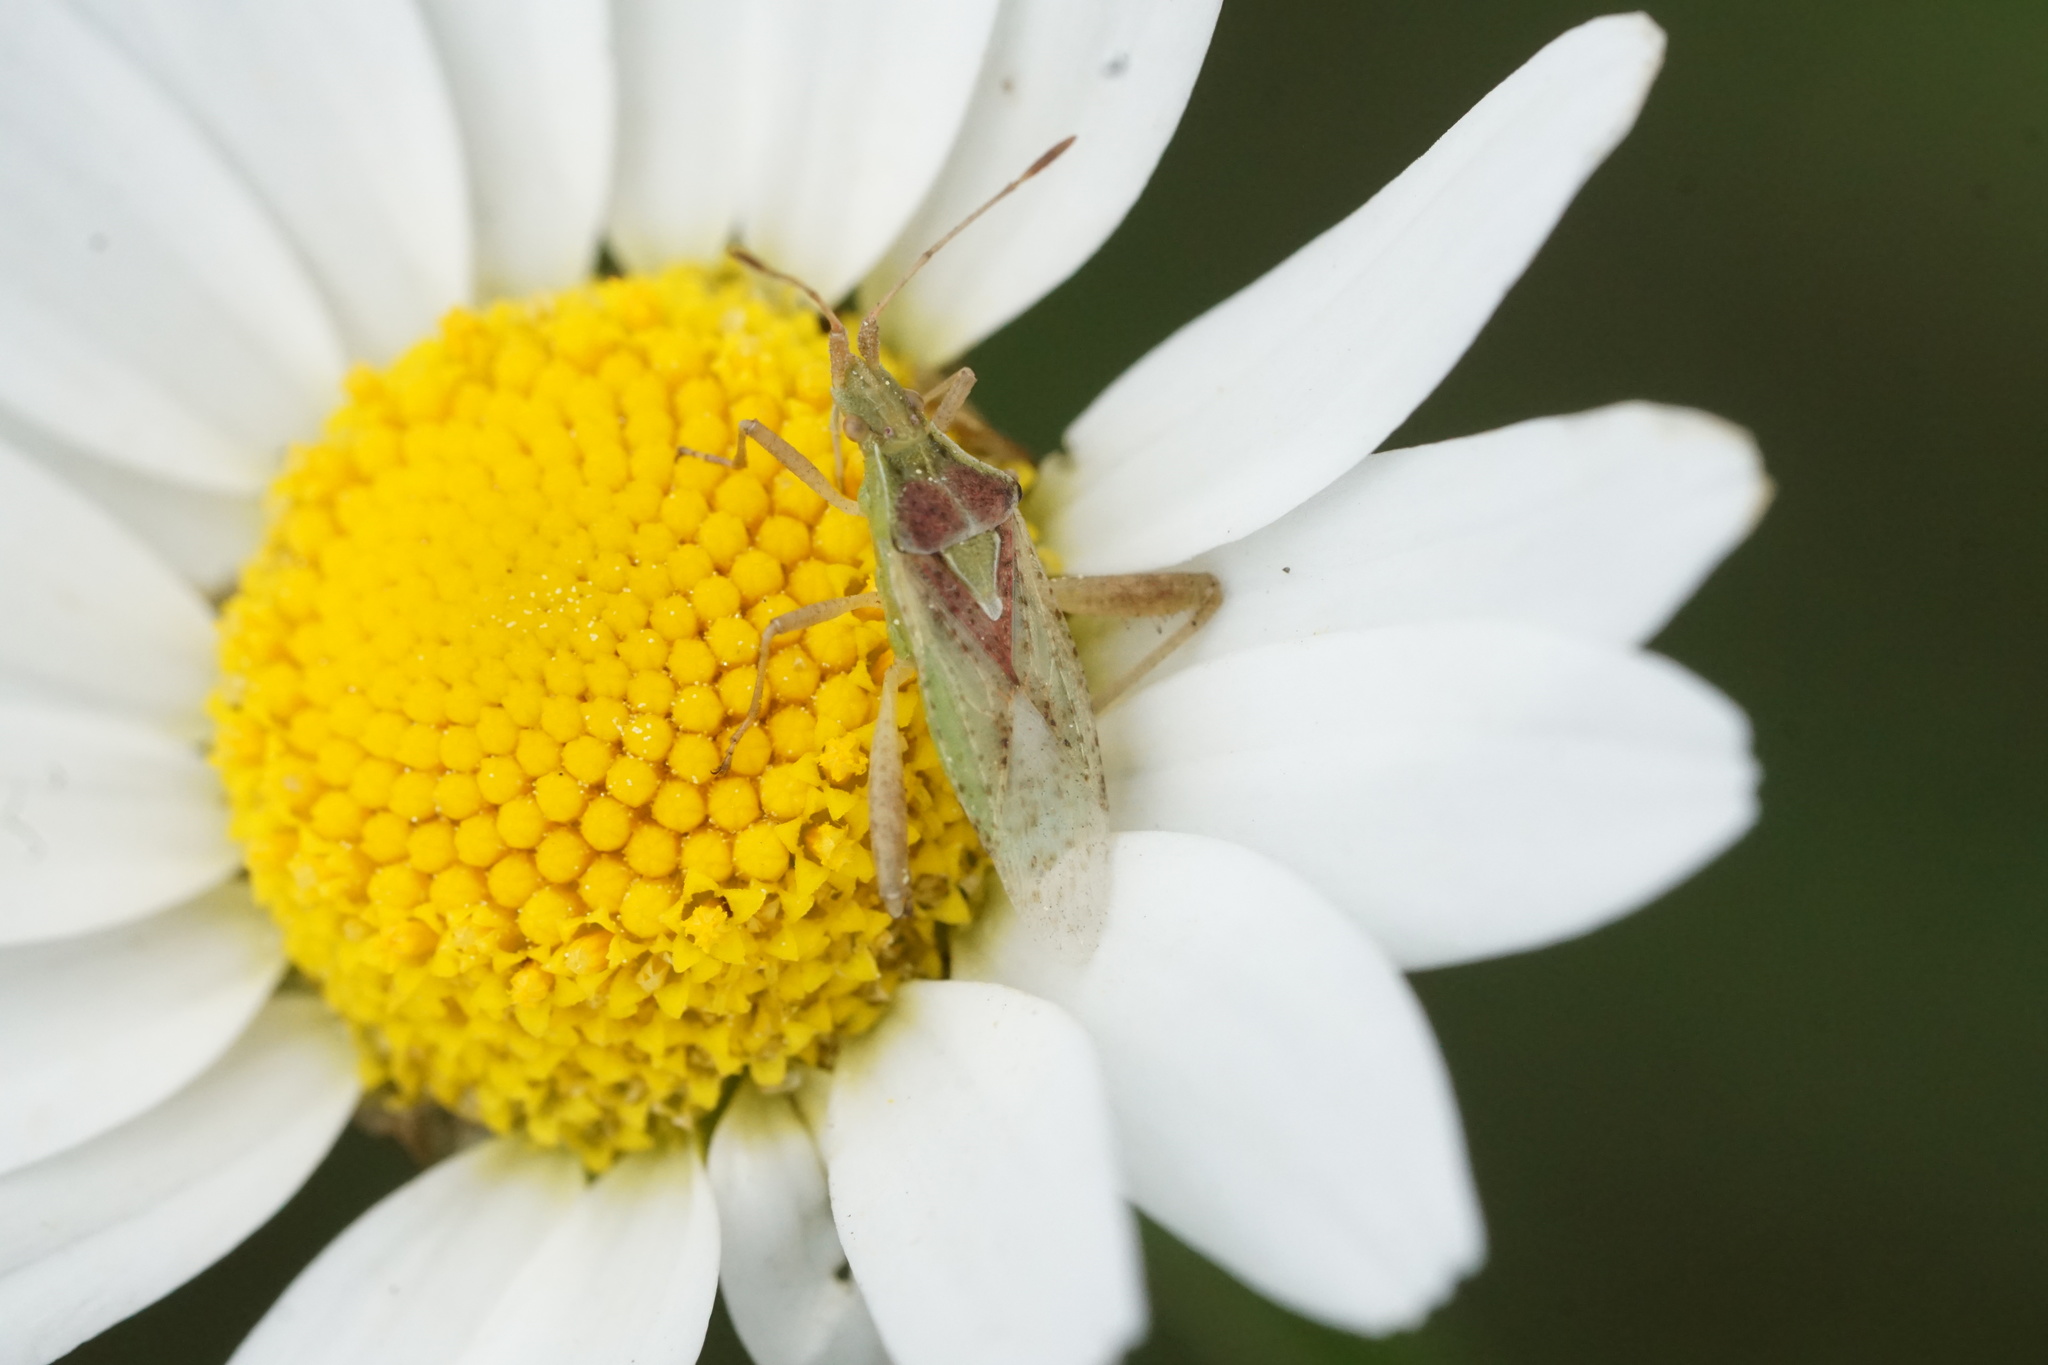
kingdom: Animalia
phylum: Arthropoda
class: Insecta
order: Hemiptera
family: Rhopalidae
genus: Harmostes
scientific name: Harmostes reflexulus
